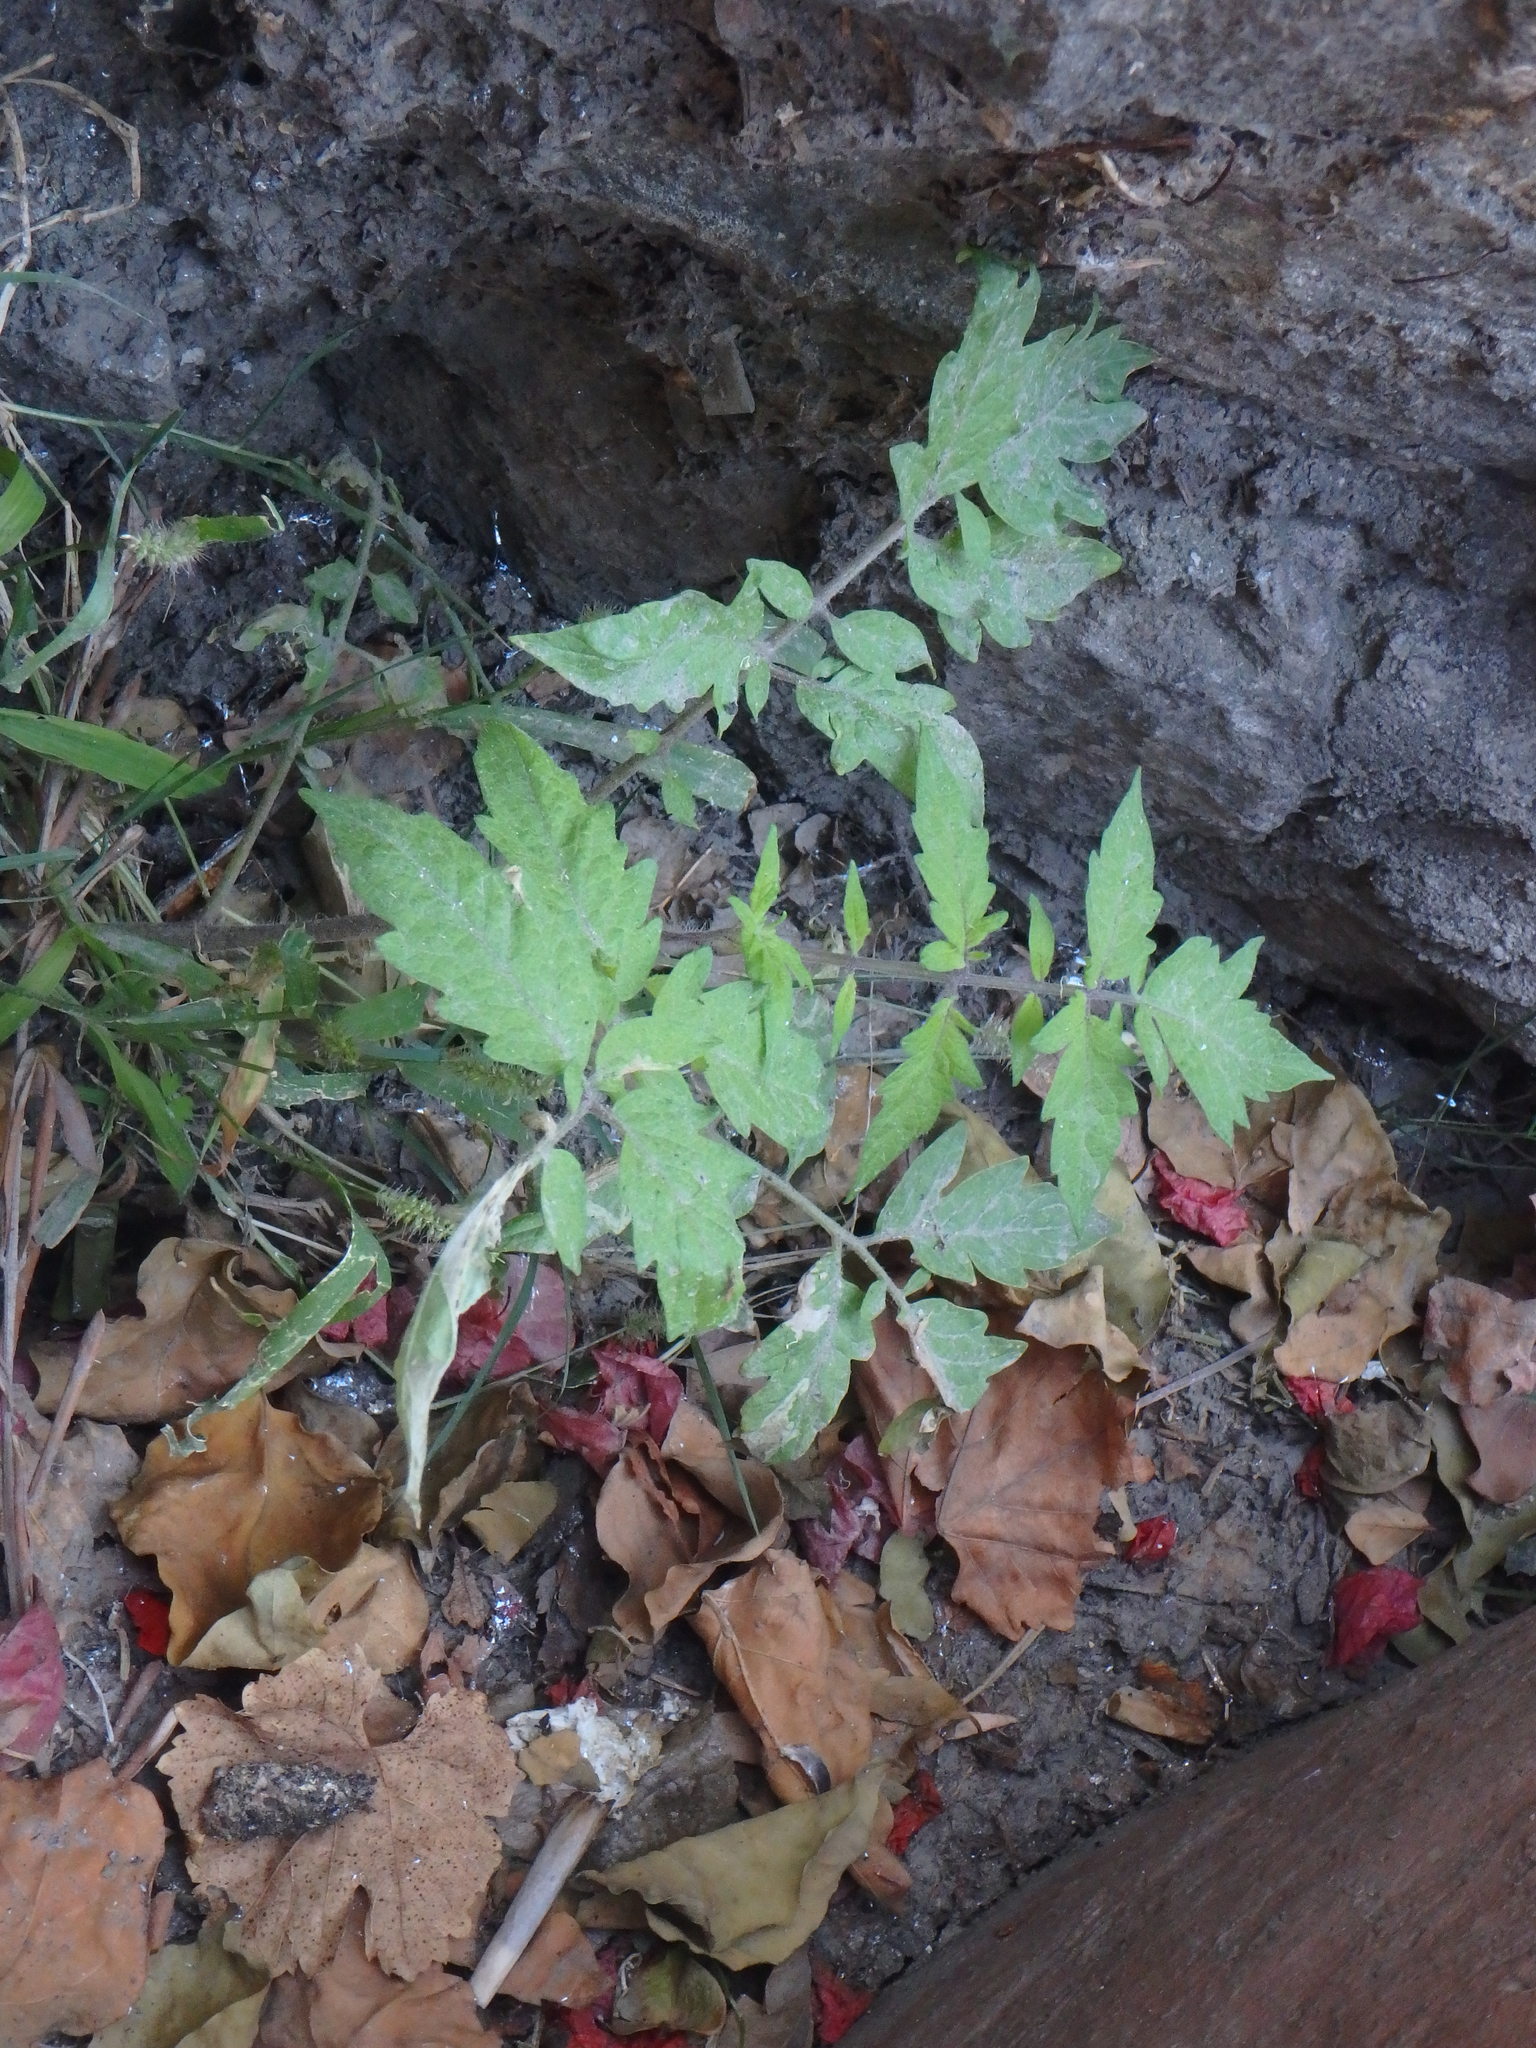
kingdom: Plantae
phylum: Tracheophyta
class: Magnoliopsida
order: Solanales
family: Solanaceae
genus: Solanum
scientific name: Solanum lycopersicum
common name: Garden tomato
